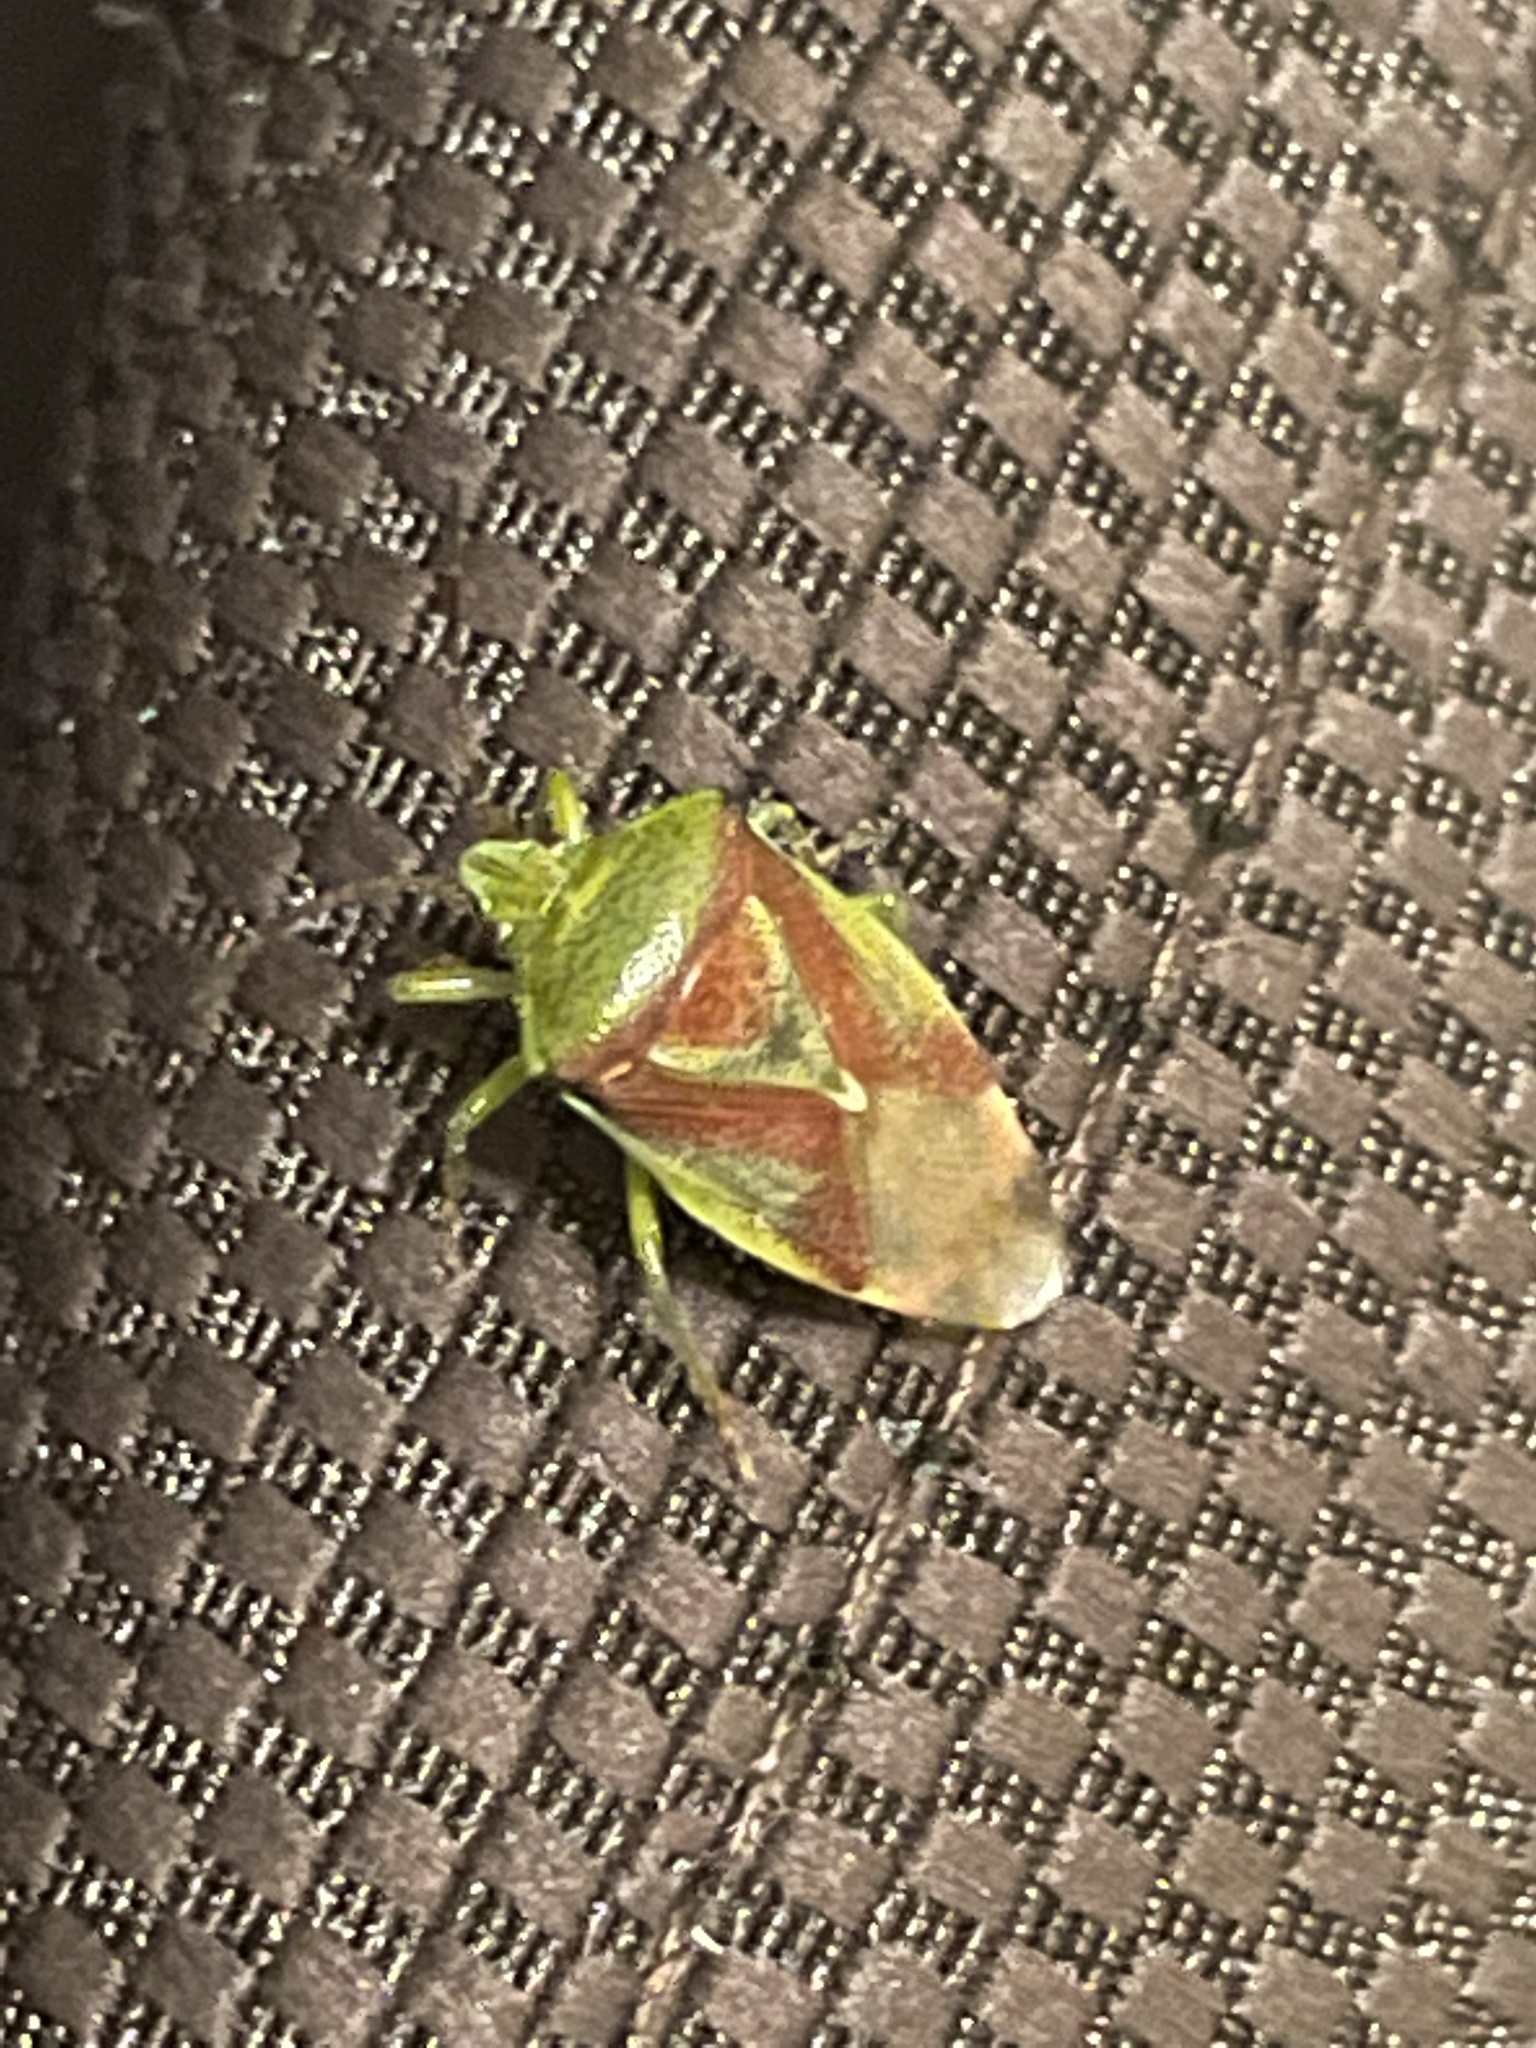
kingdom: Animalia
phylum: Arthropoda
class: Insecta
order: Hemiptera
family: Acanthosomatidae
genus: Elasmostethus
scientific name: Elasmostethus
